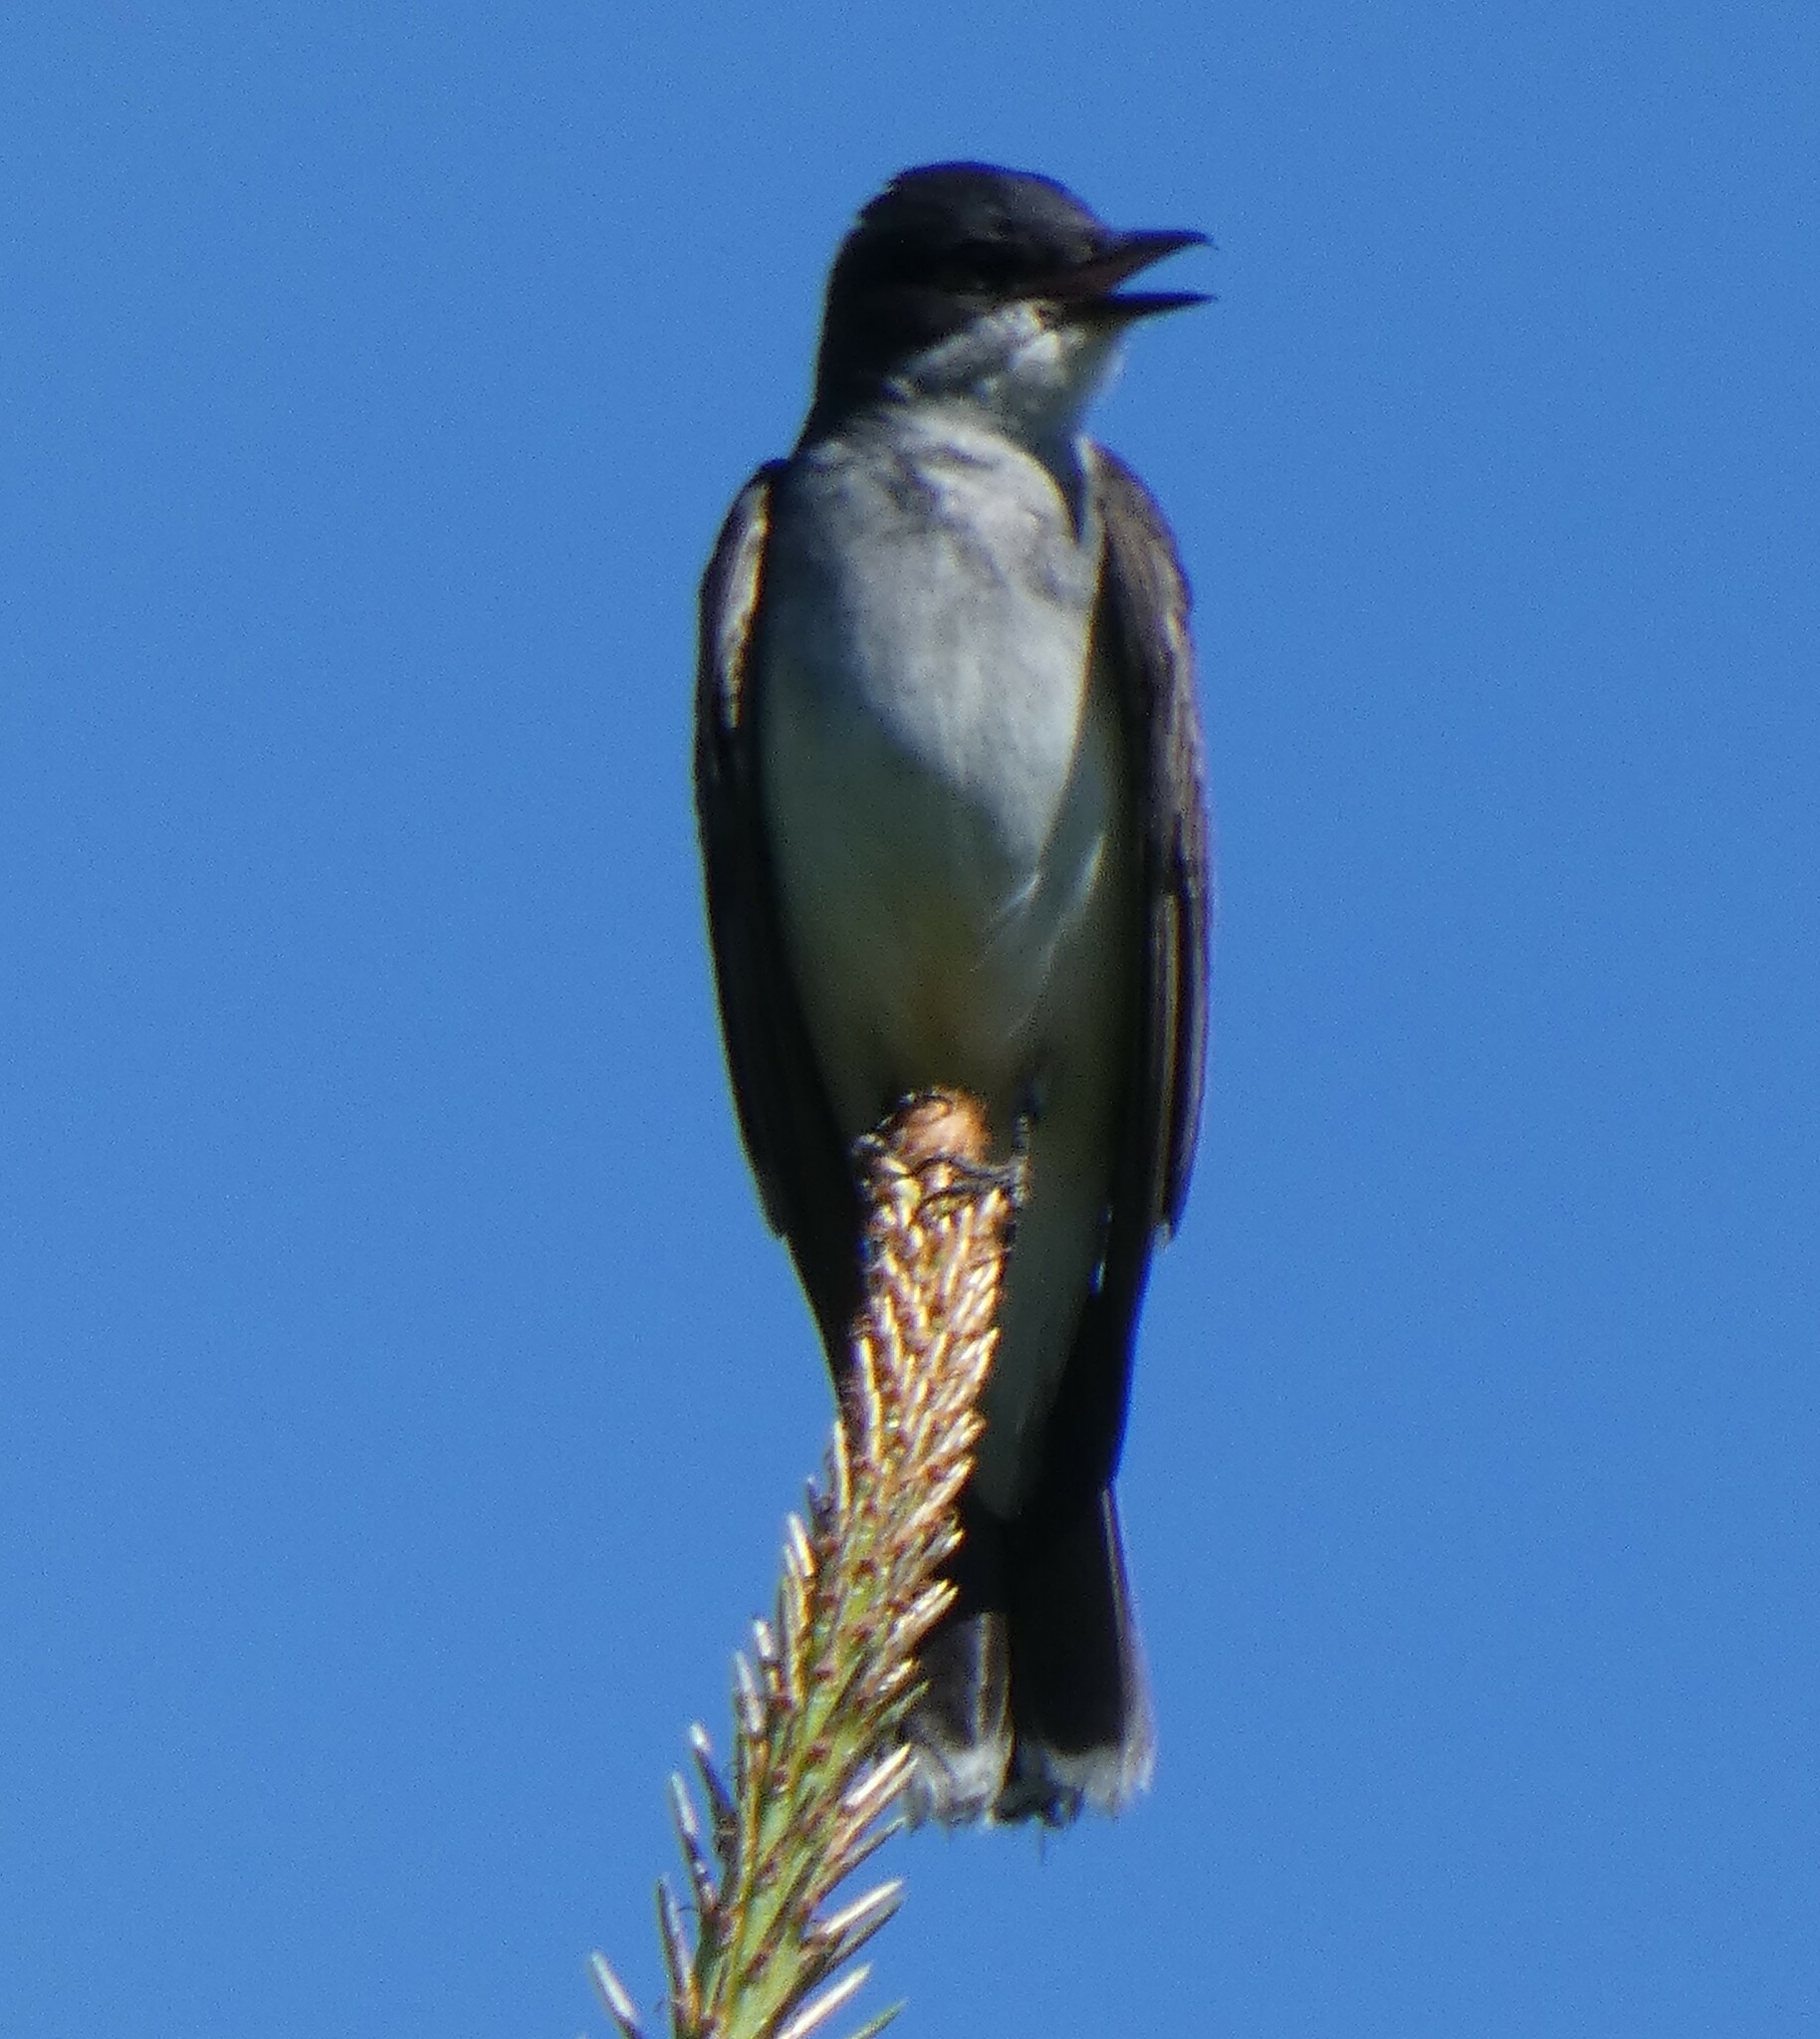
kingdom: Animalia
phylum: Chordata
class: Aves
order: Passeriformes
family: Tyrannidae
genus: Tyrannus
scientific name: Tyrannus tyrannus
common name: Eastern kingbird
